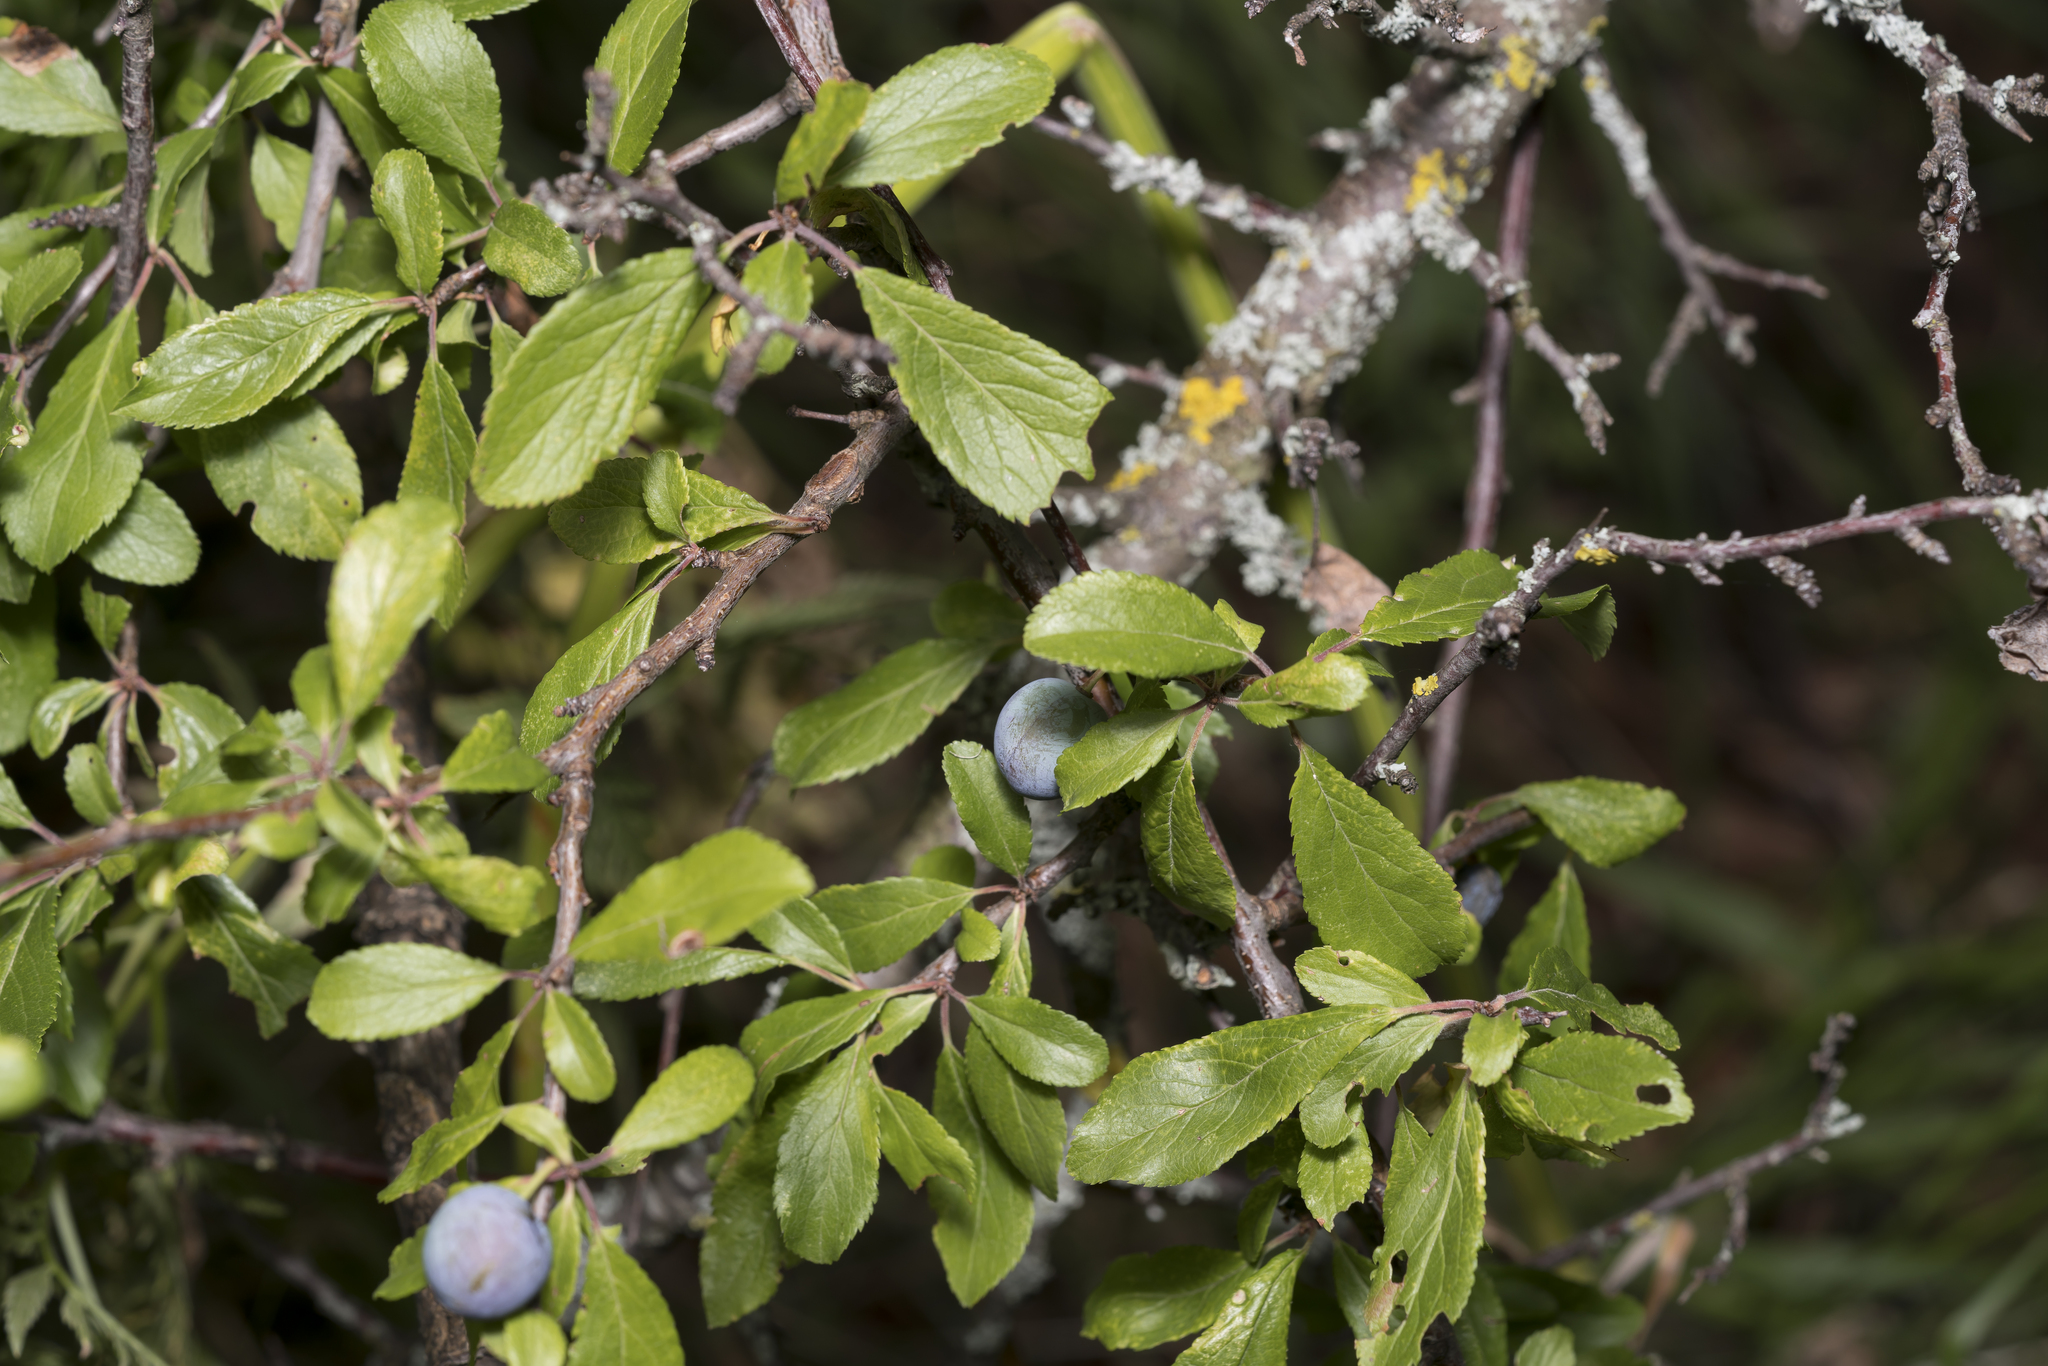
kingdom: Plantae
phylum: Tracheophyta
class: Magnoliopsida
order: Rosales
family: Rosaceae
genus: Prunus
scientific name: Prunus spinosa
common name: Blackthorn
